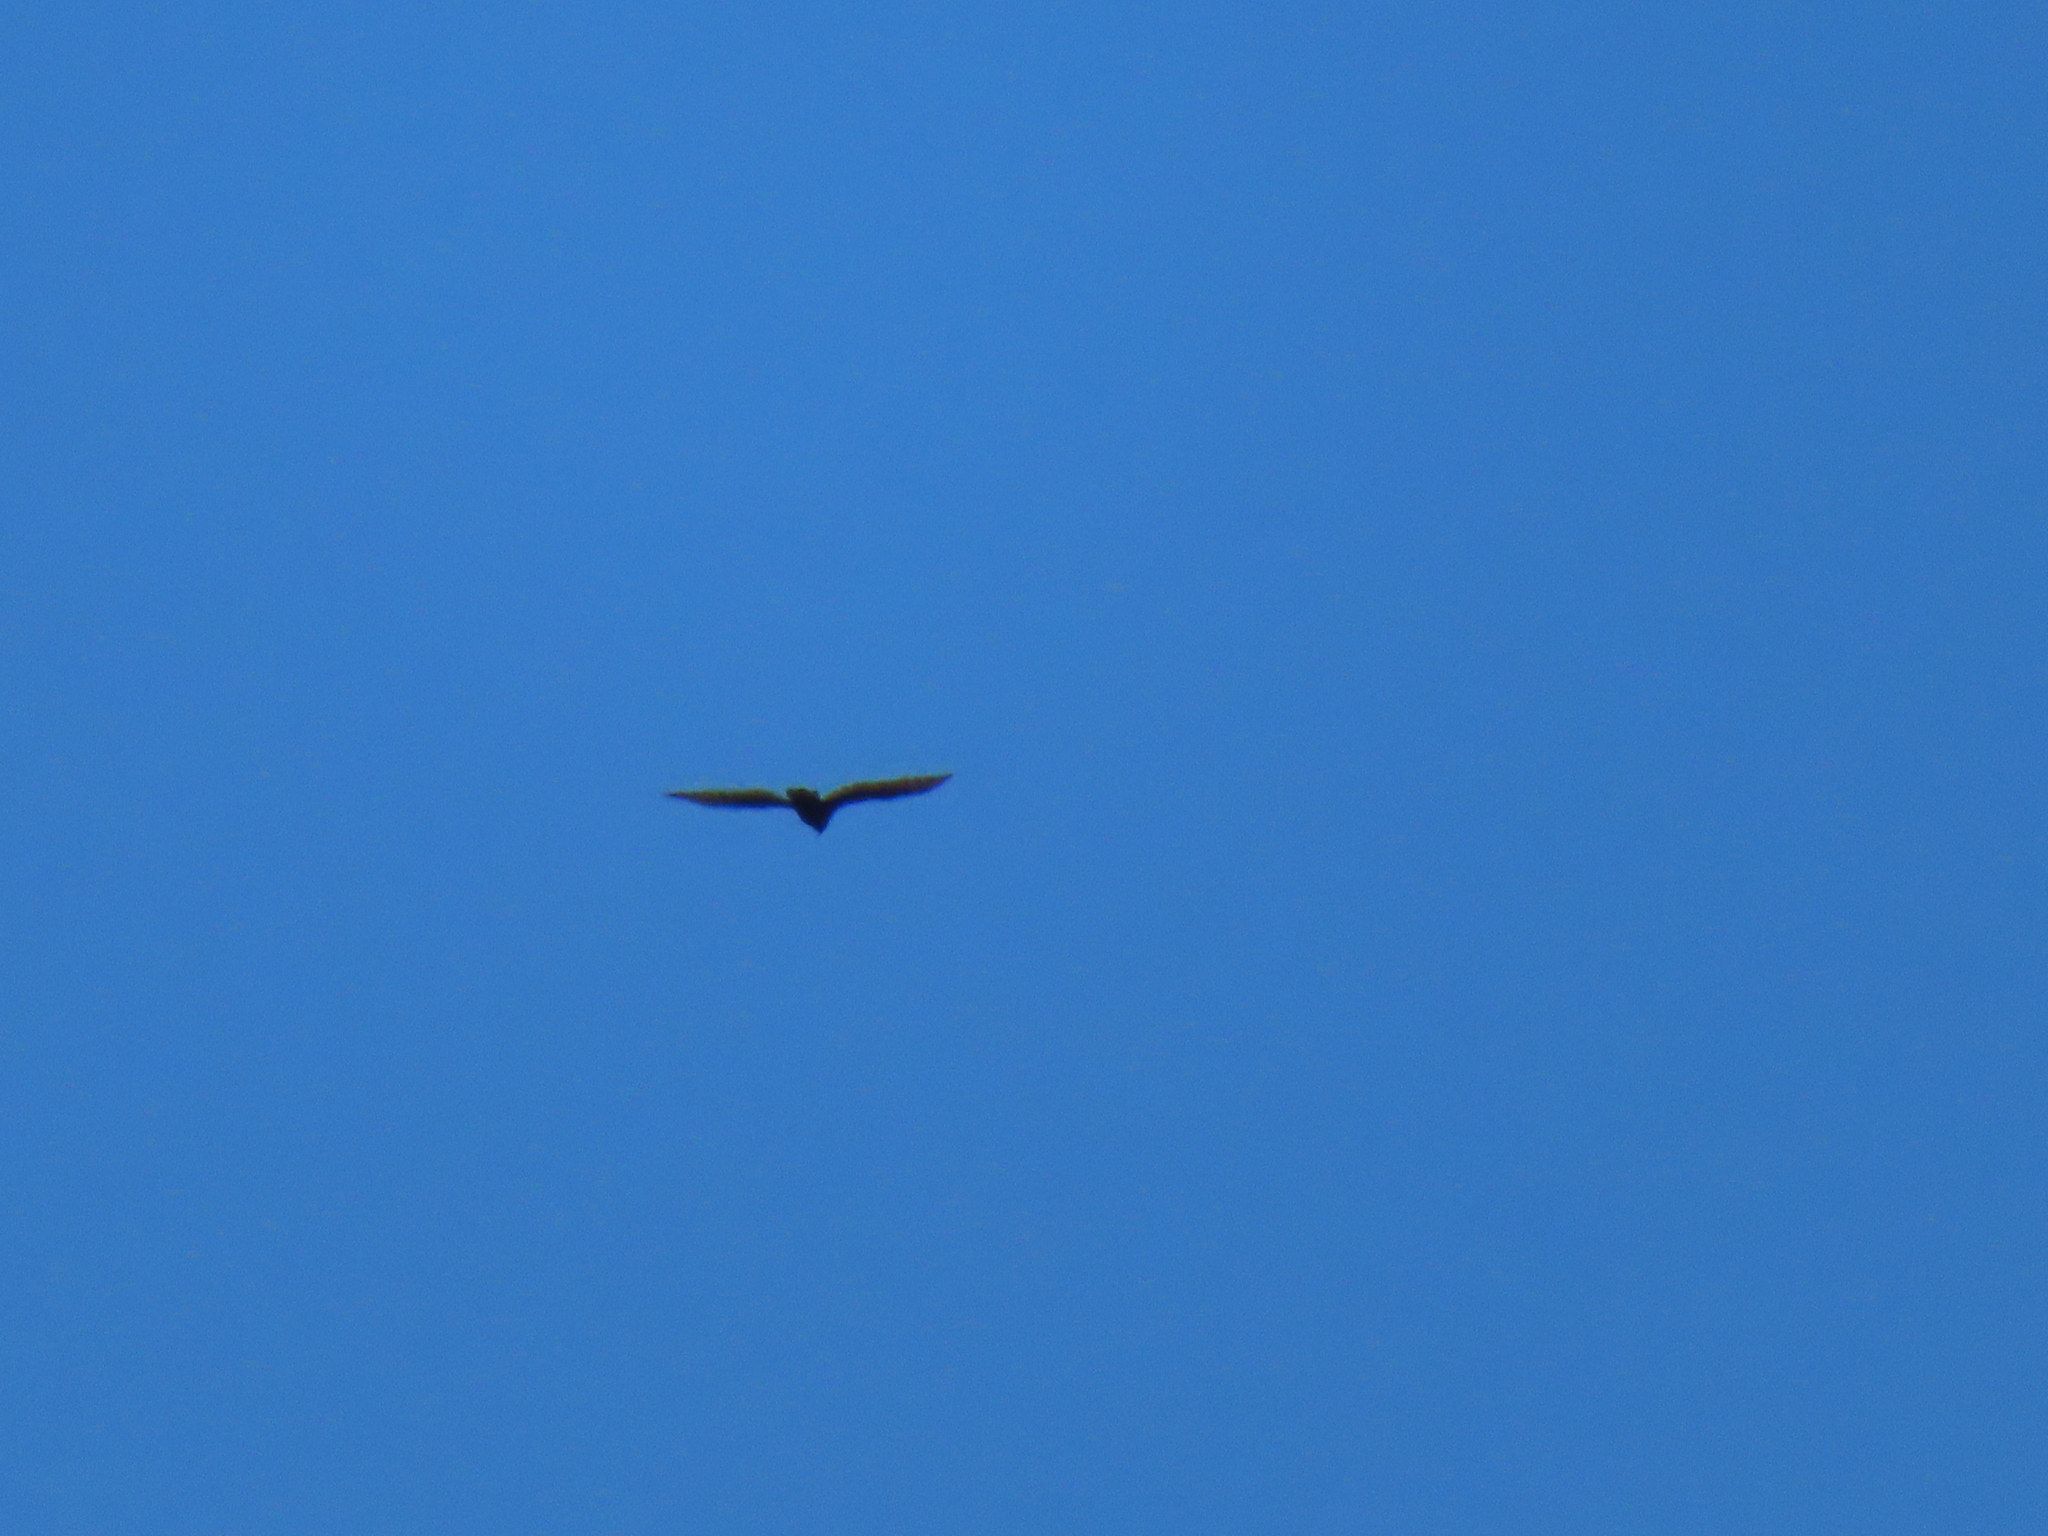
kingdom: Animalia
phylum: Chordata
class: Aves
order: Accipitriformes
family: Cathartidae
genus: Cathartes
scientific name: Cathartes aura
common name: Turkey vulture
